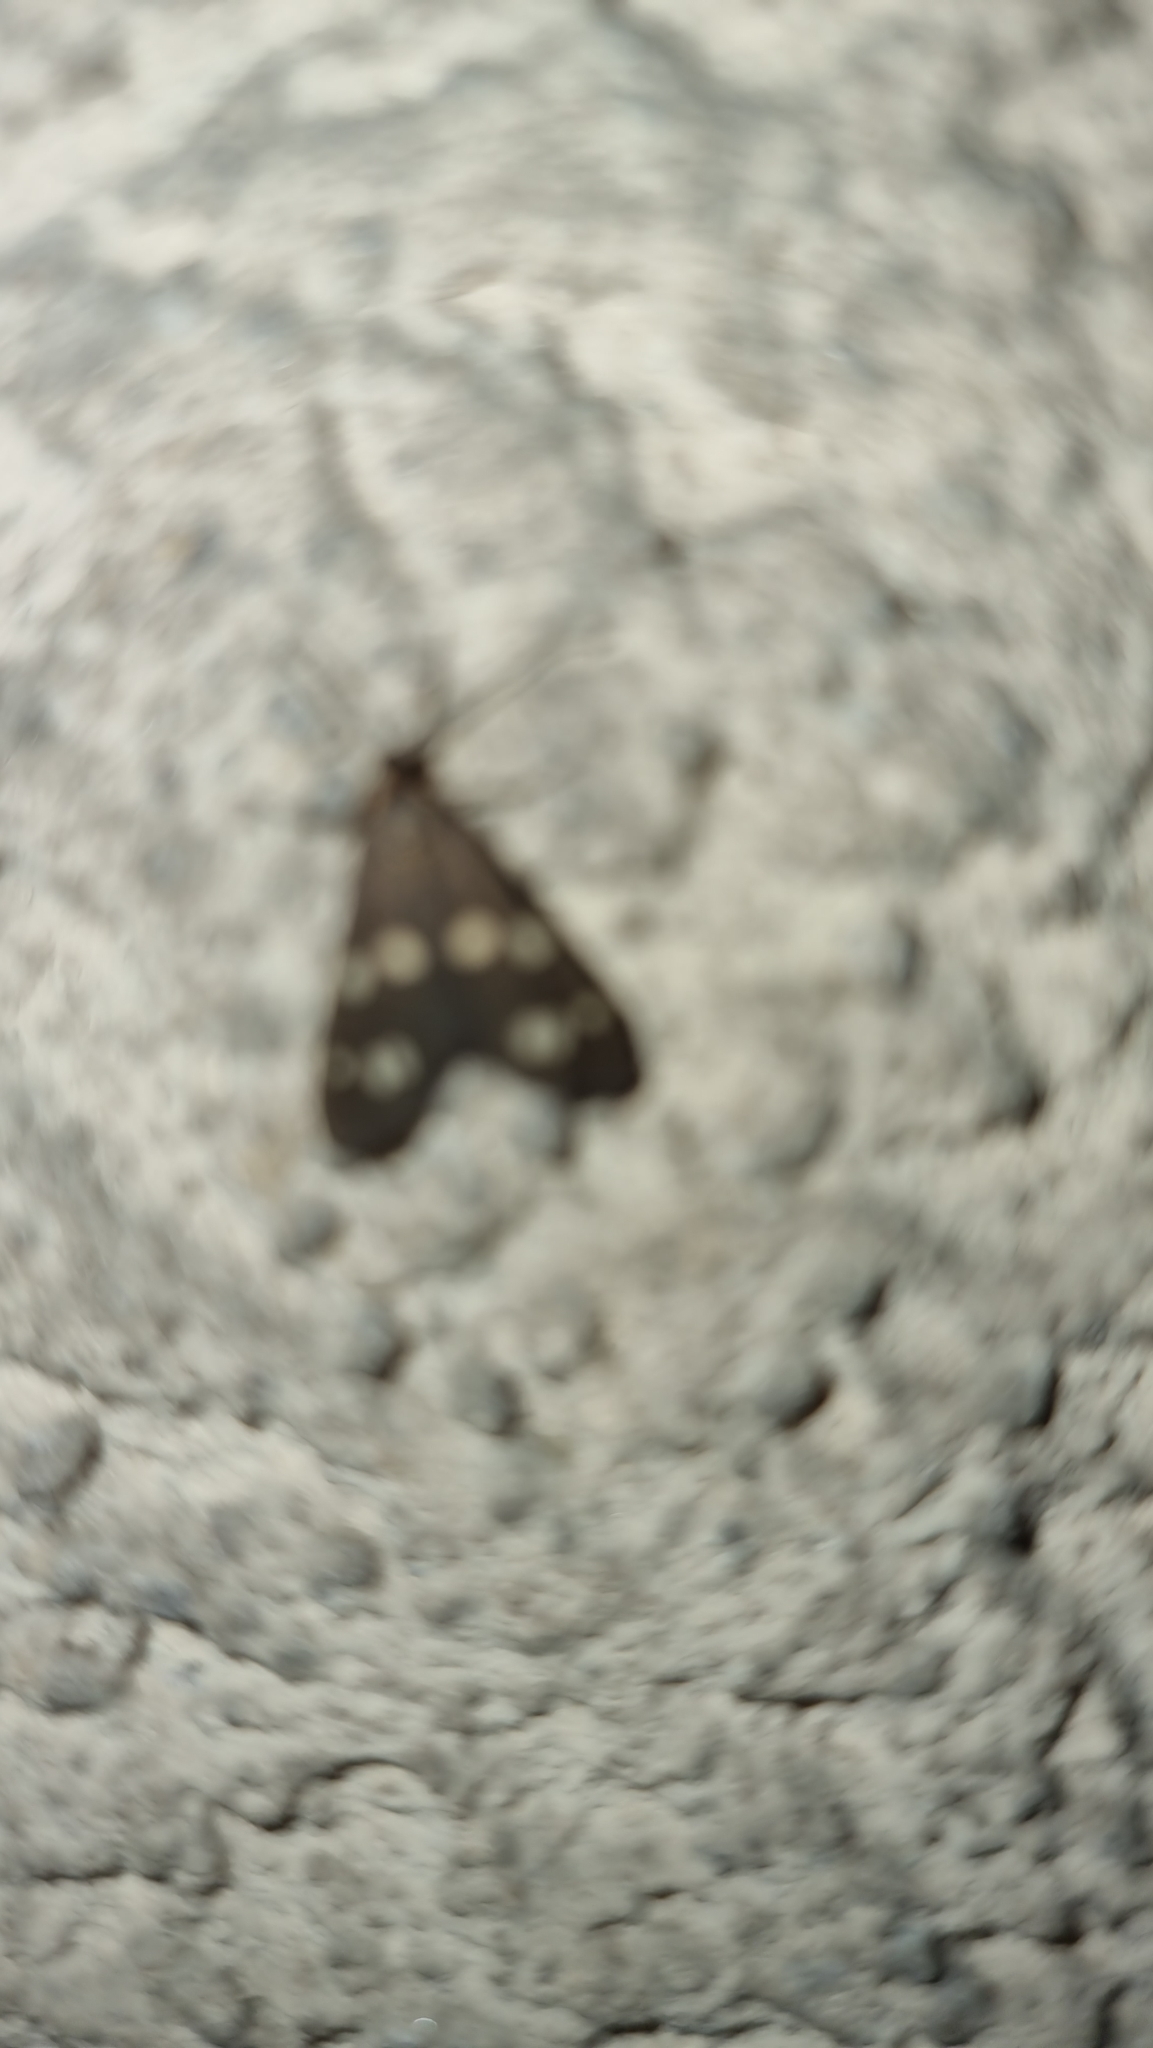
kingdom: Animalia
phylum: Arthropoda
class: Insecta
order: Lepidoptera
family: Erebidae
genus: Dysauxes
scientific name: Dysauxes punctata
